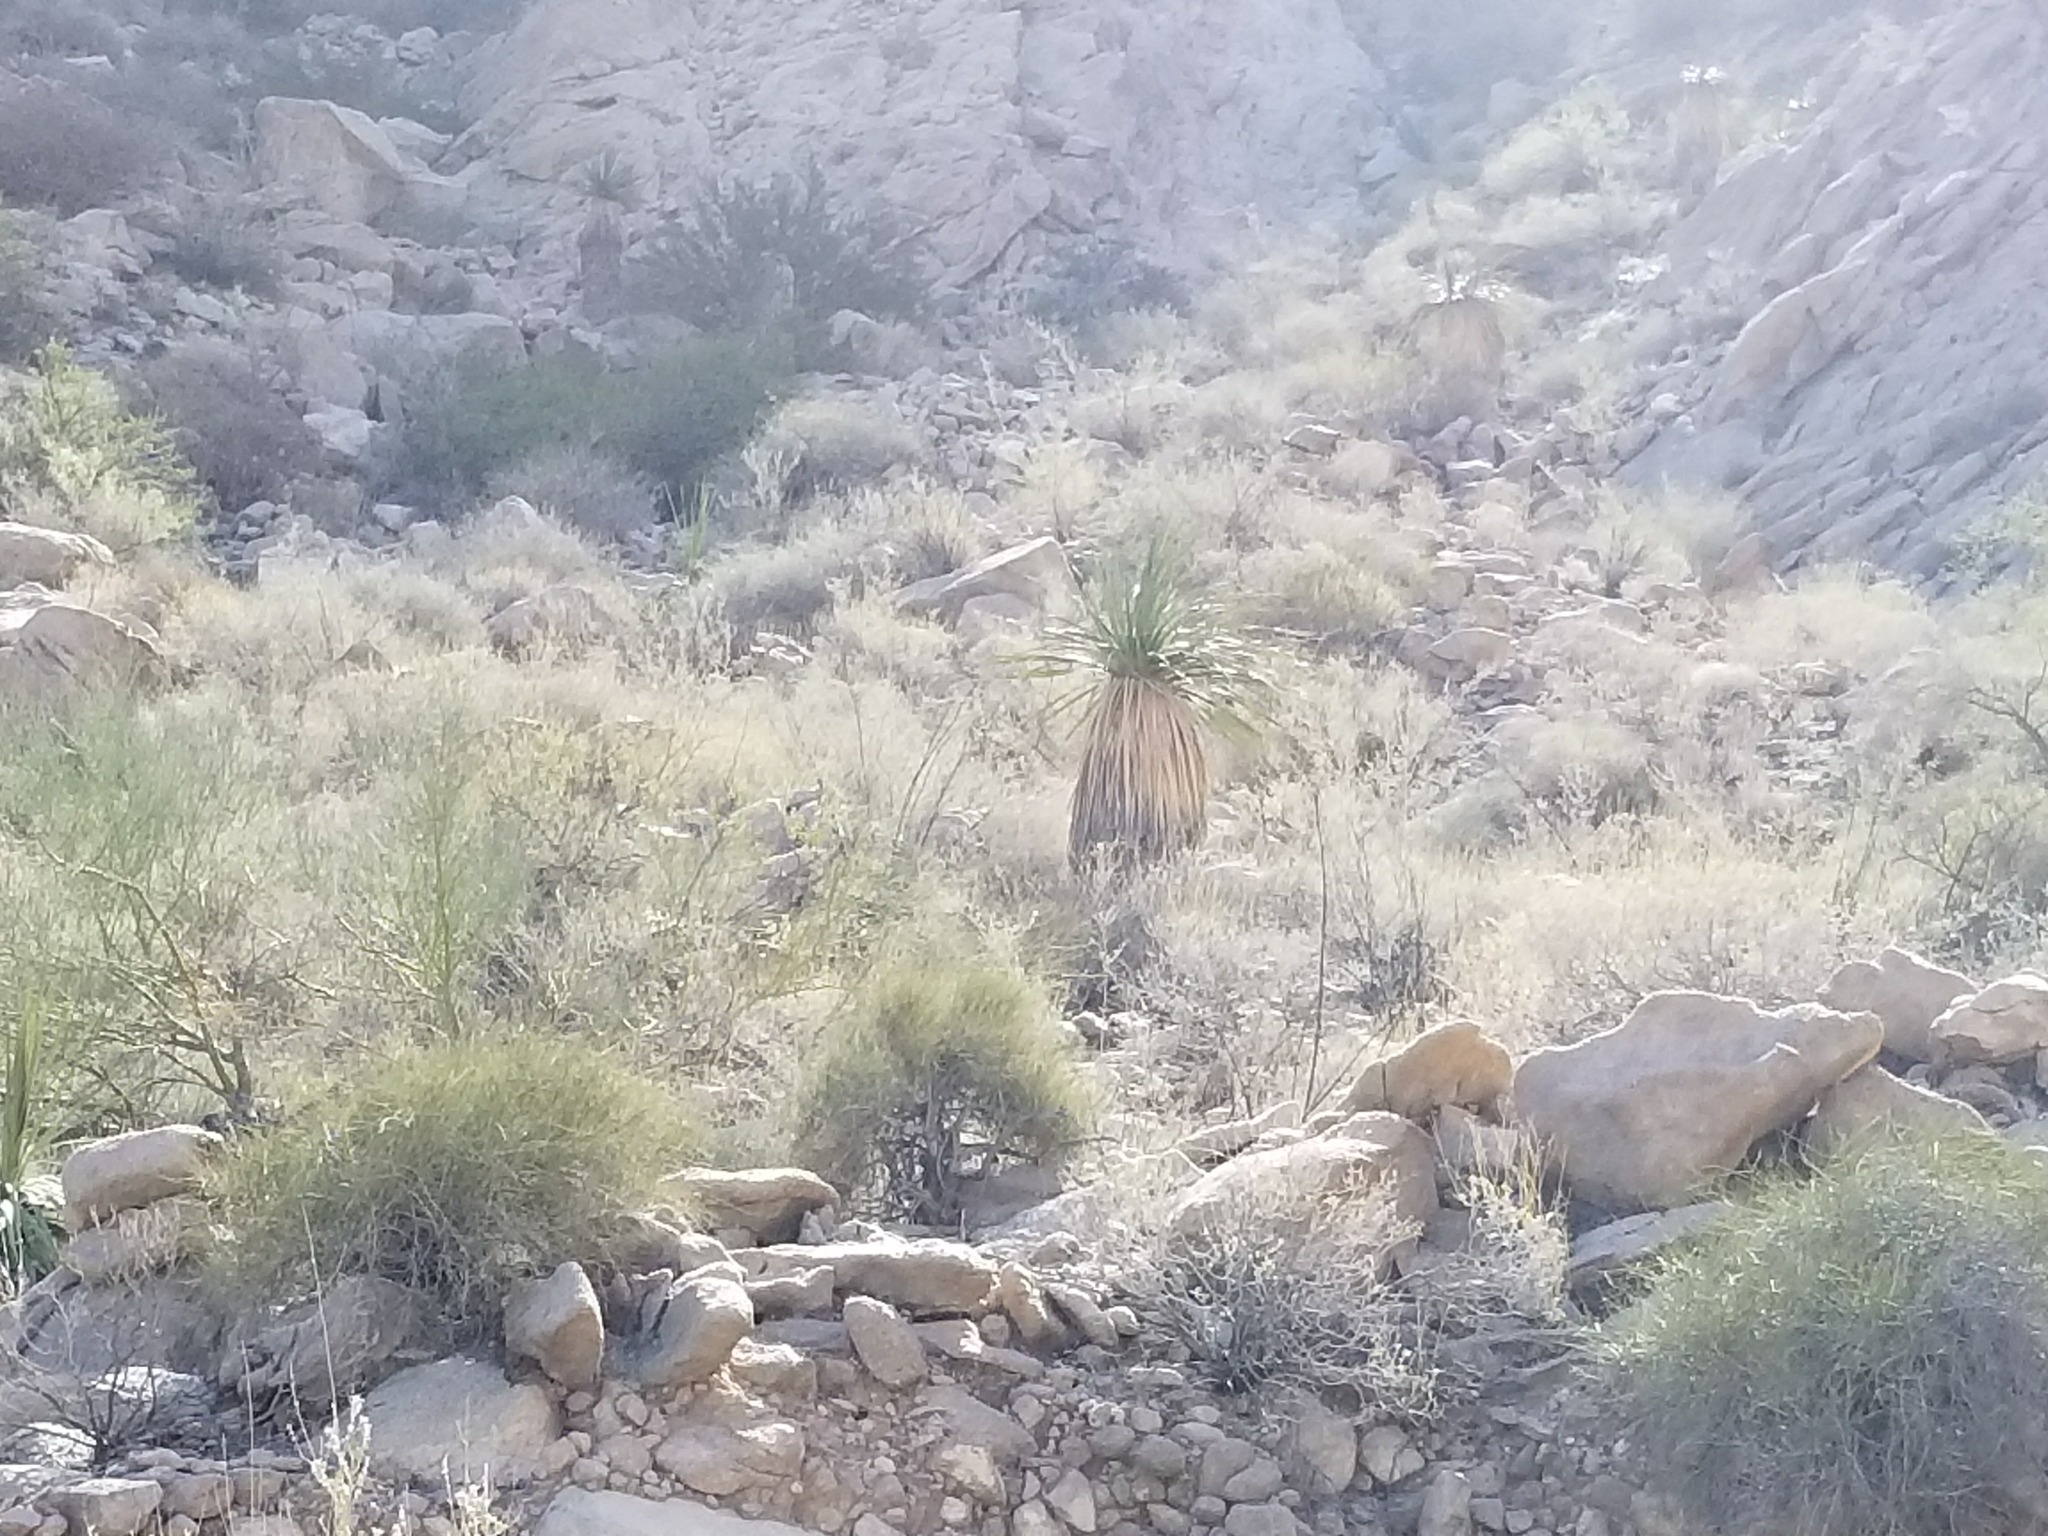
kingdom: Plantae
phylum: Tracheophyta
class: Liliopsida
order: Asparagales
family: Asparagaceae
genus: Nolina
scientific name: Nolina bigelovii
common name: Bigelow bear-grass
